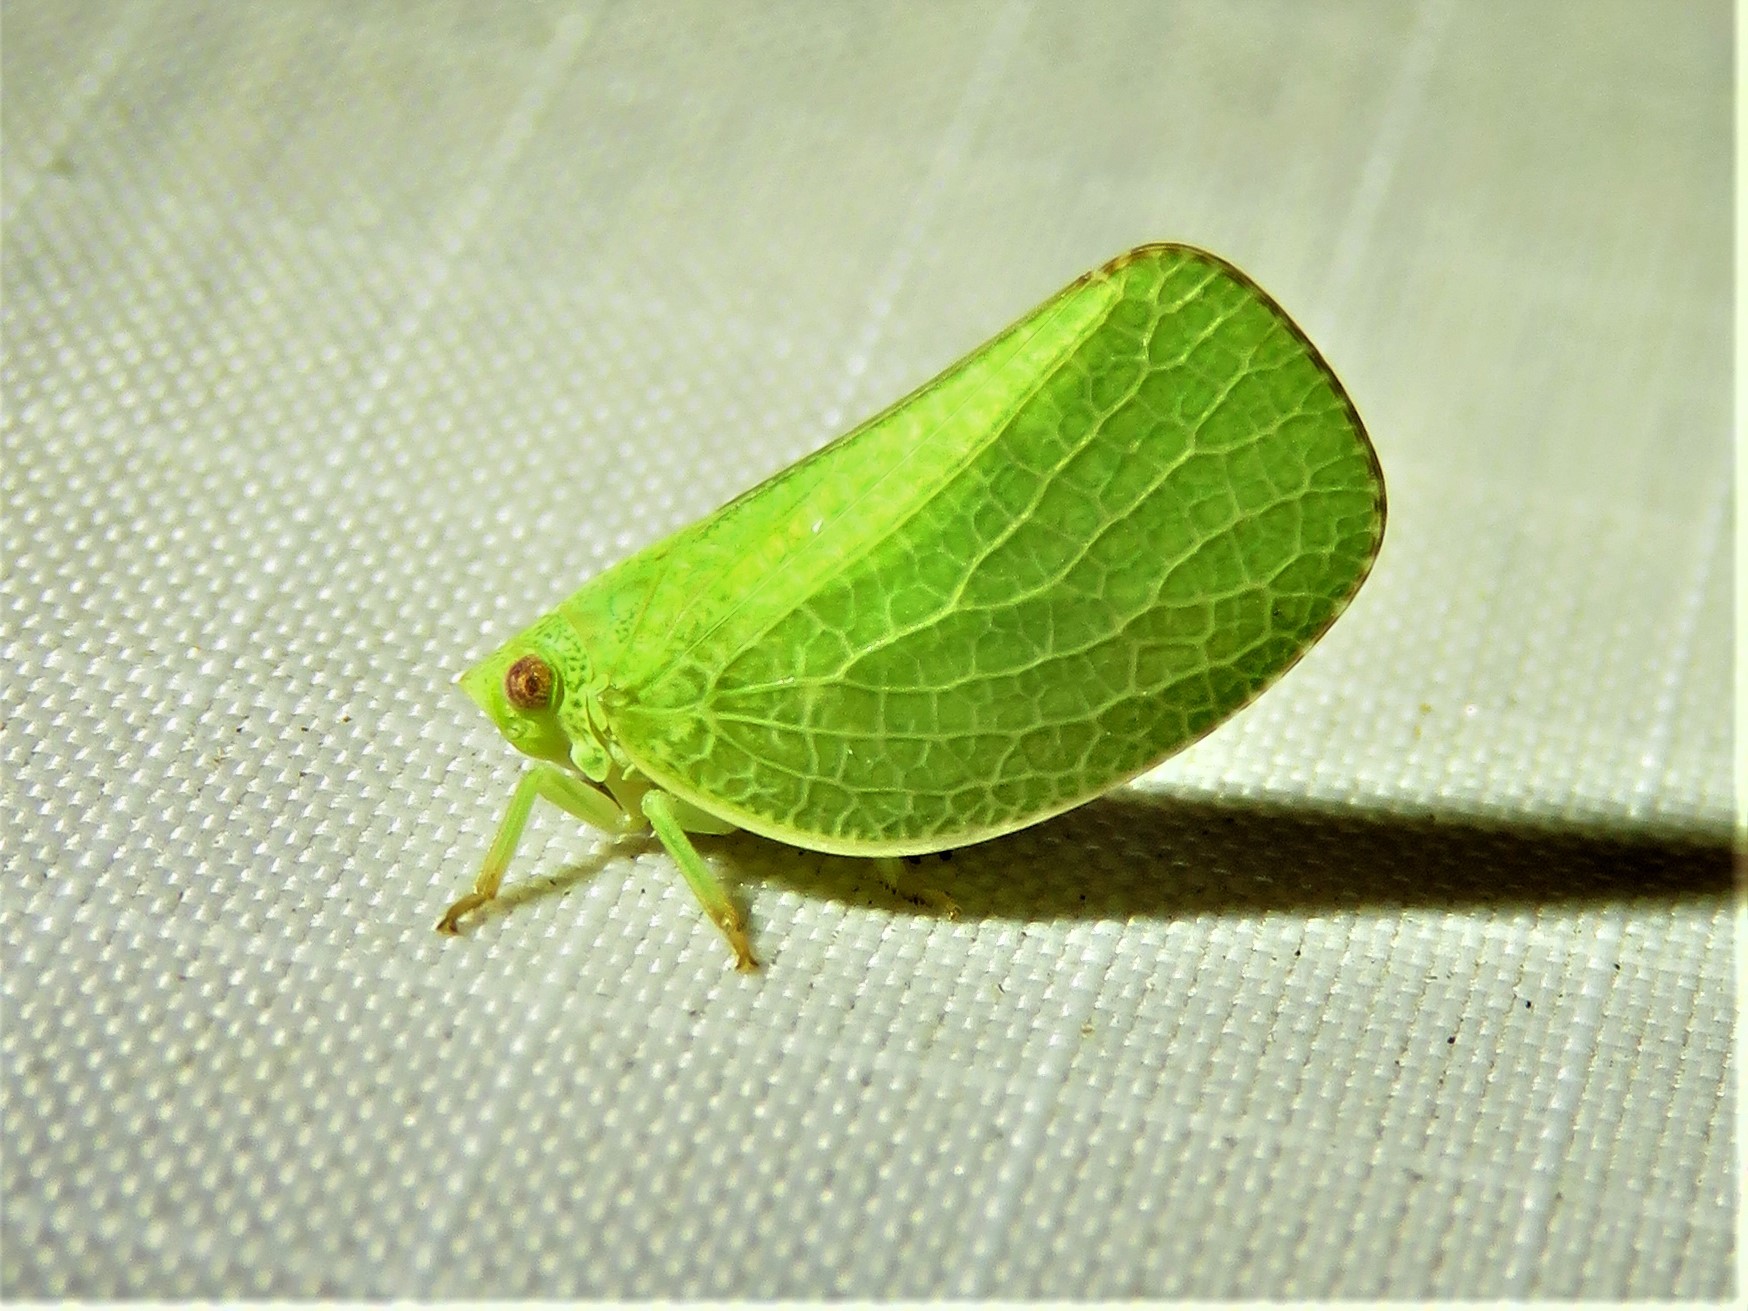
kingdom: Animalia
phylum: Arthropoda
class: Insecta
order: Hemiptera
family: Acanaloniidae
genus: Acanalonia
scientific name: Acanalonia conica
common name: Green cone-headed planthopper
